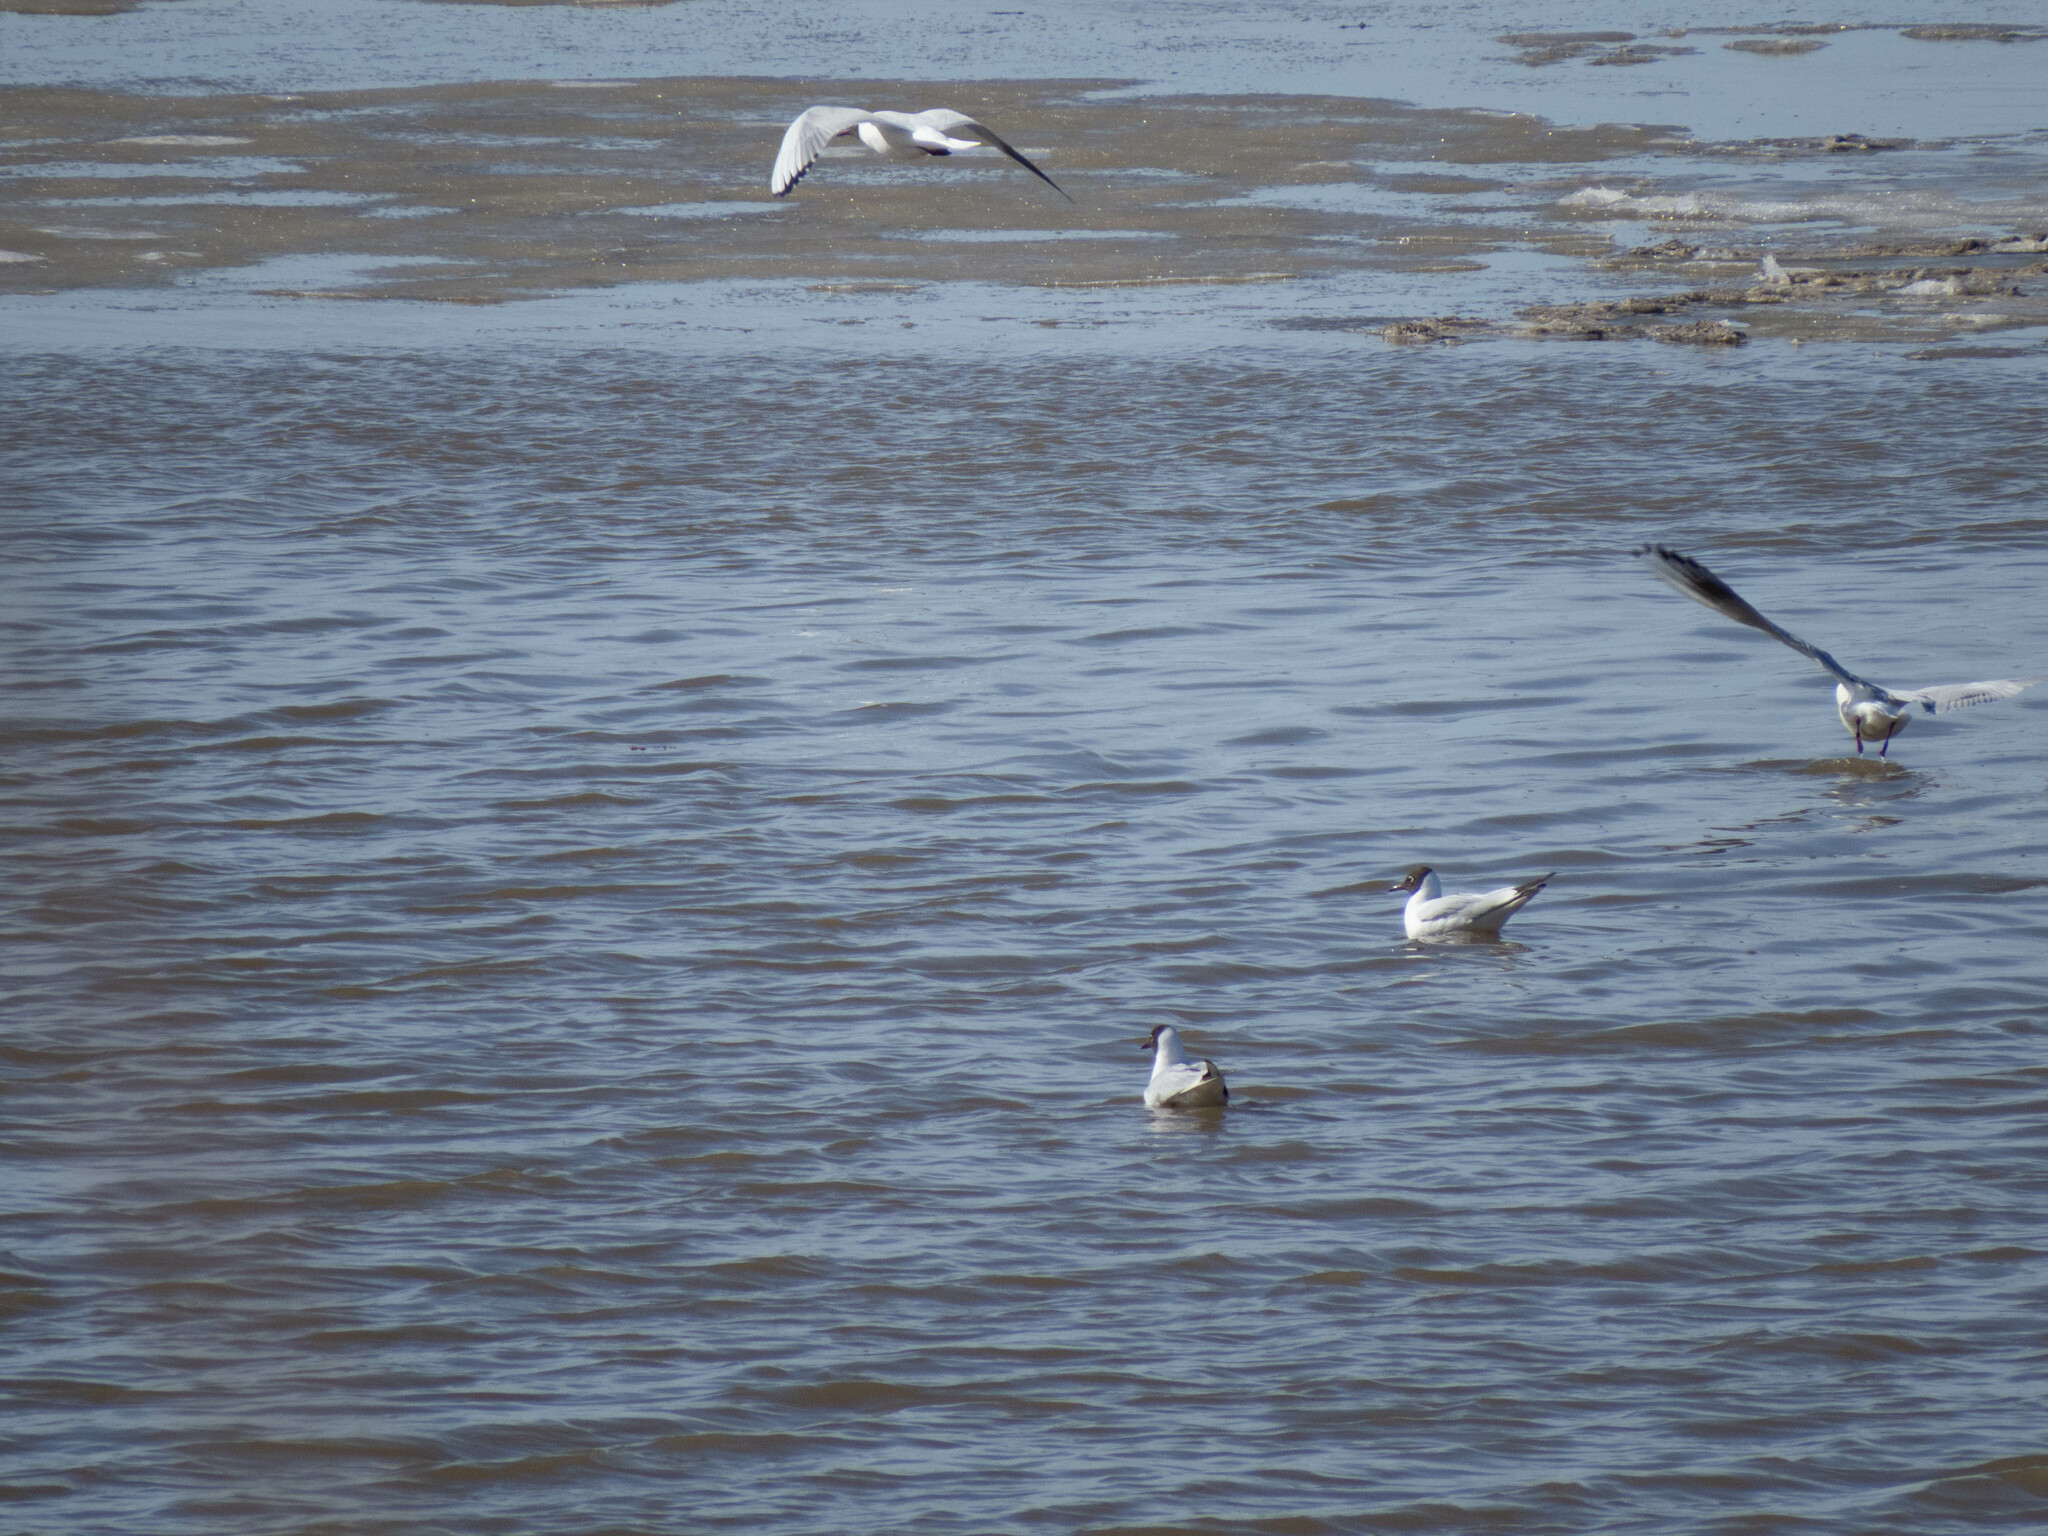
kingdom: Animalia
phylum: Chordata
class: Aves
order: Charadriiformes
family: Laridae
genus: Chroicocephalus
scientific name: Chroicocephalus ridibundus
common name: Black-headed gull
